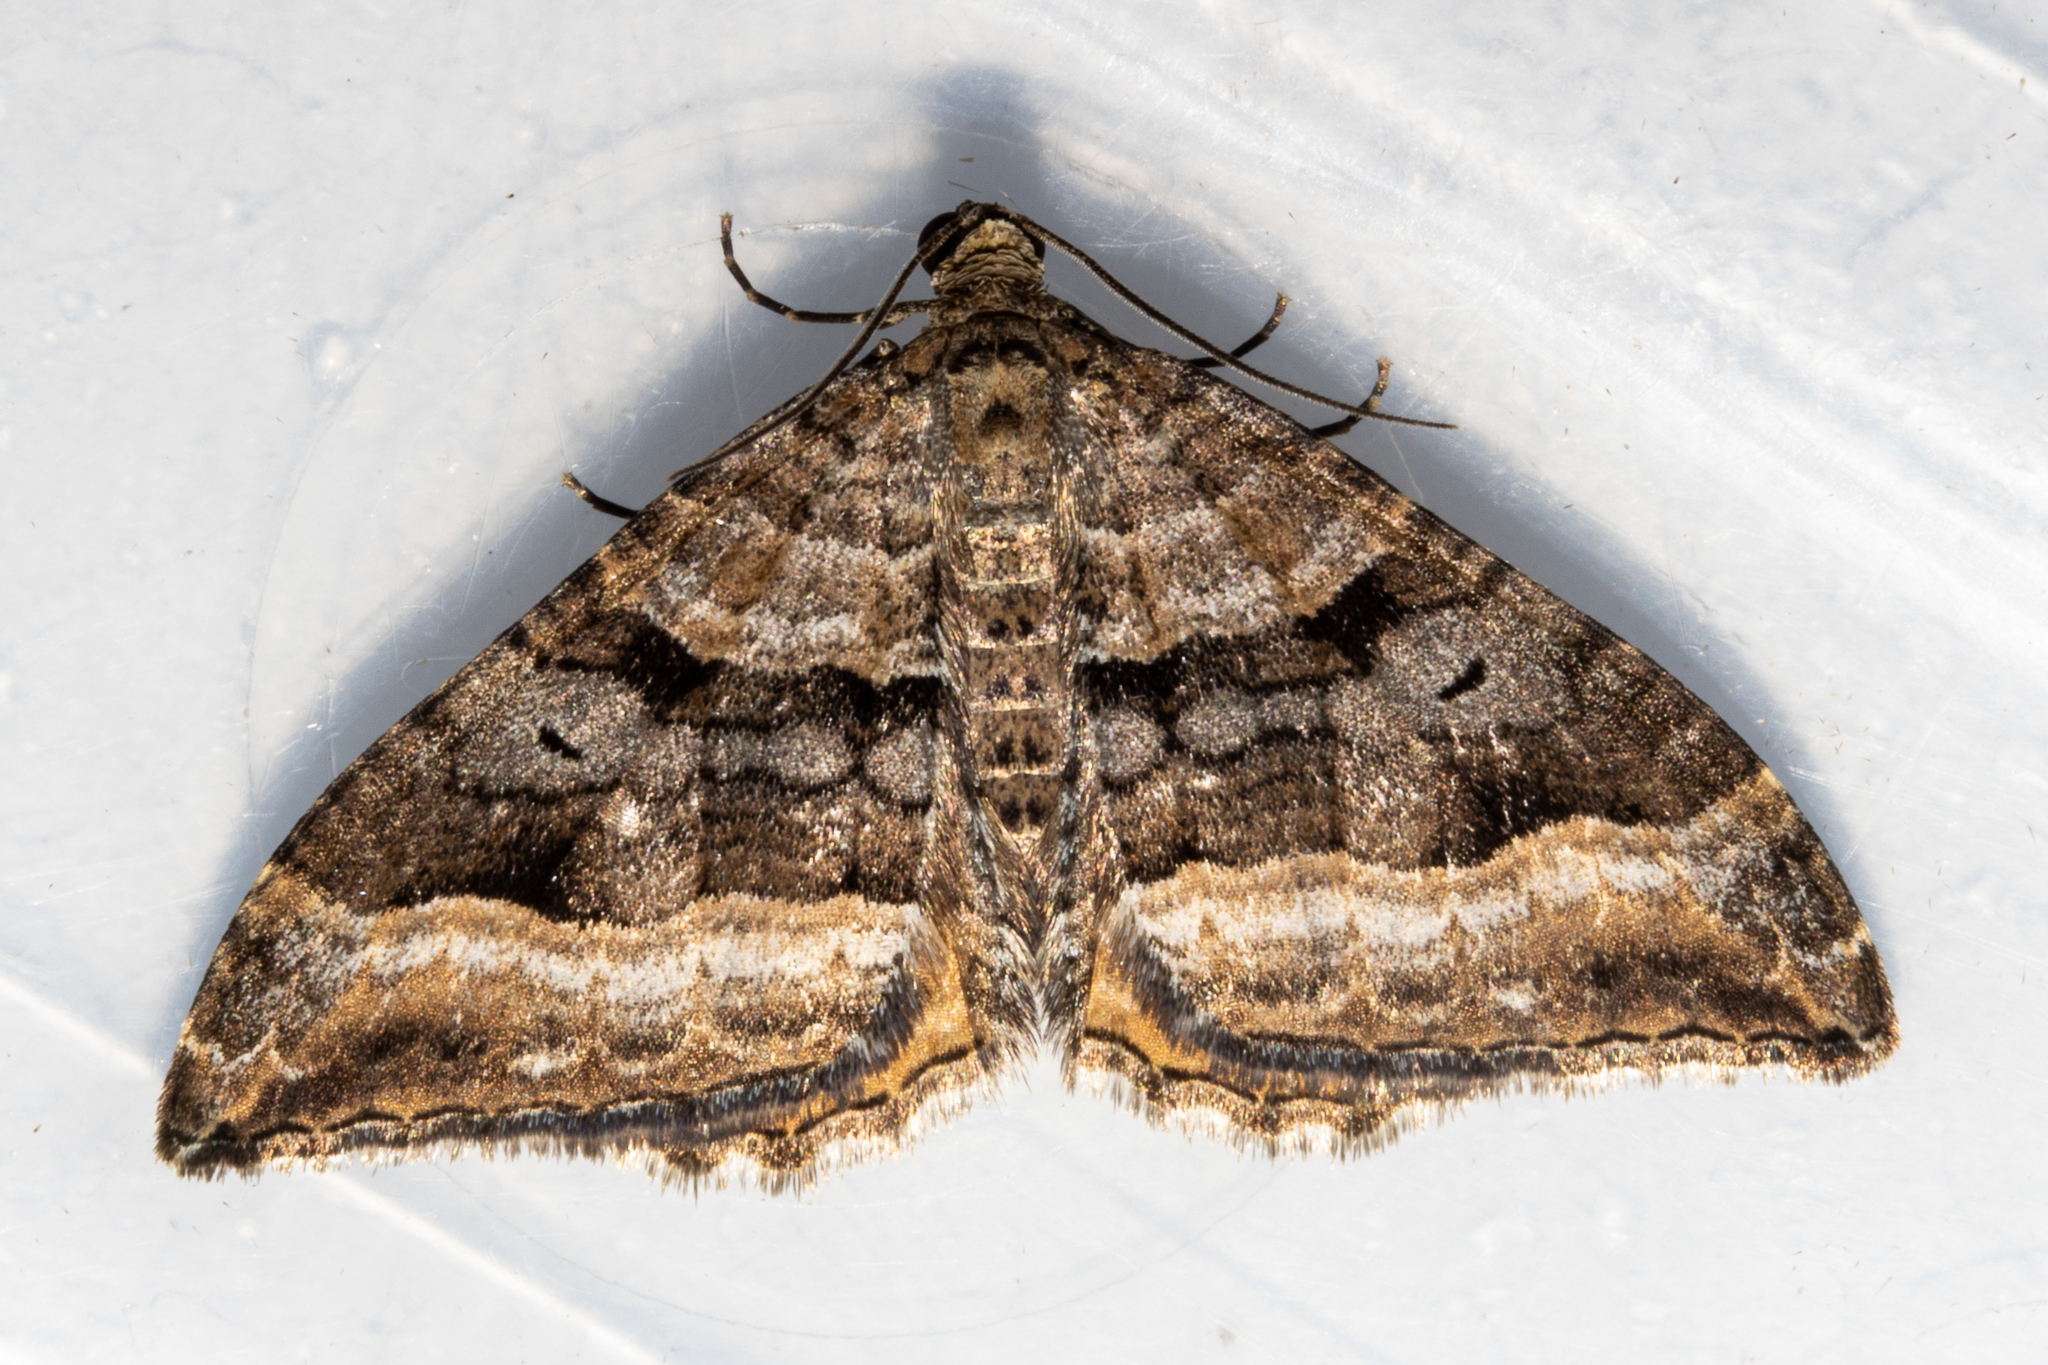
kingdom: Animalia
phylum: Arthropoda
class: Insecta
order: Lepidoptera
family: Geometridae
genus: Hydriomena
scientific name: Hydriomena deltoidata
